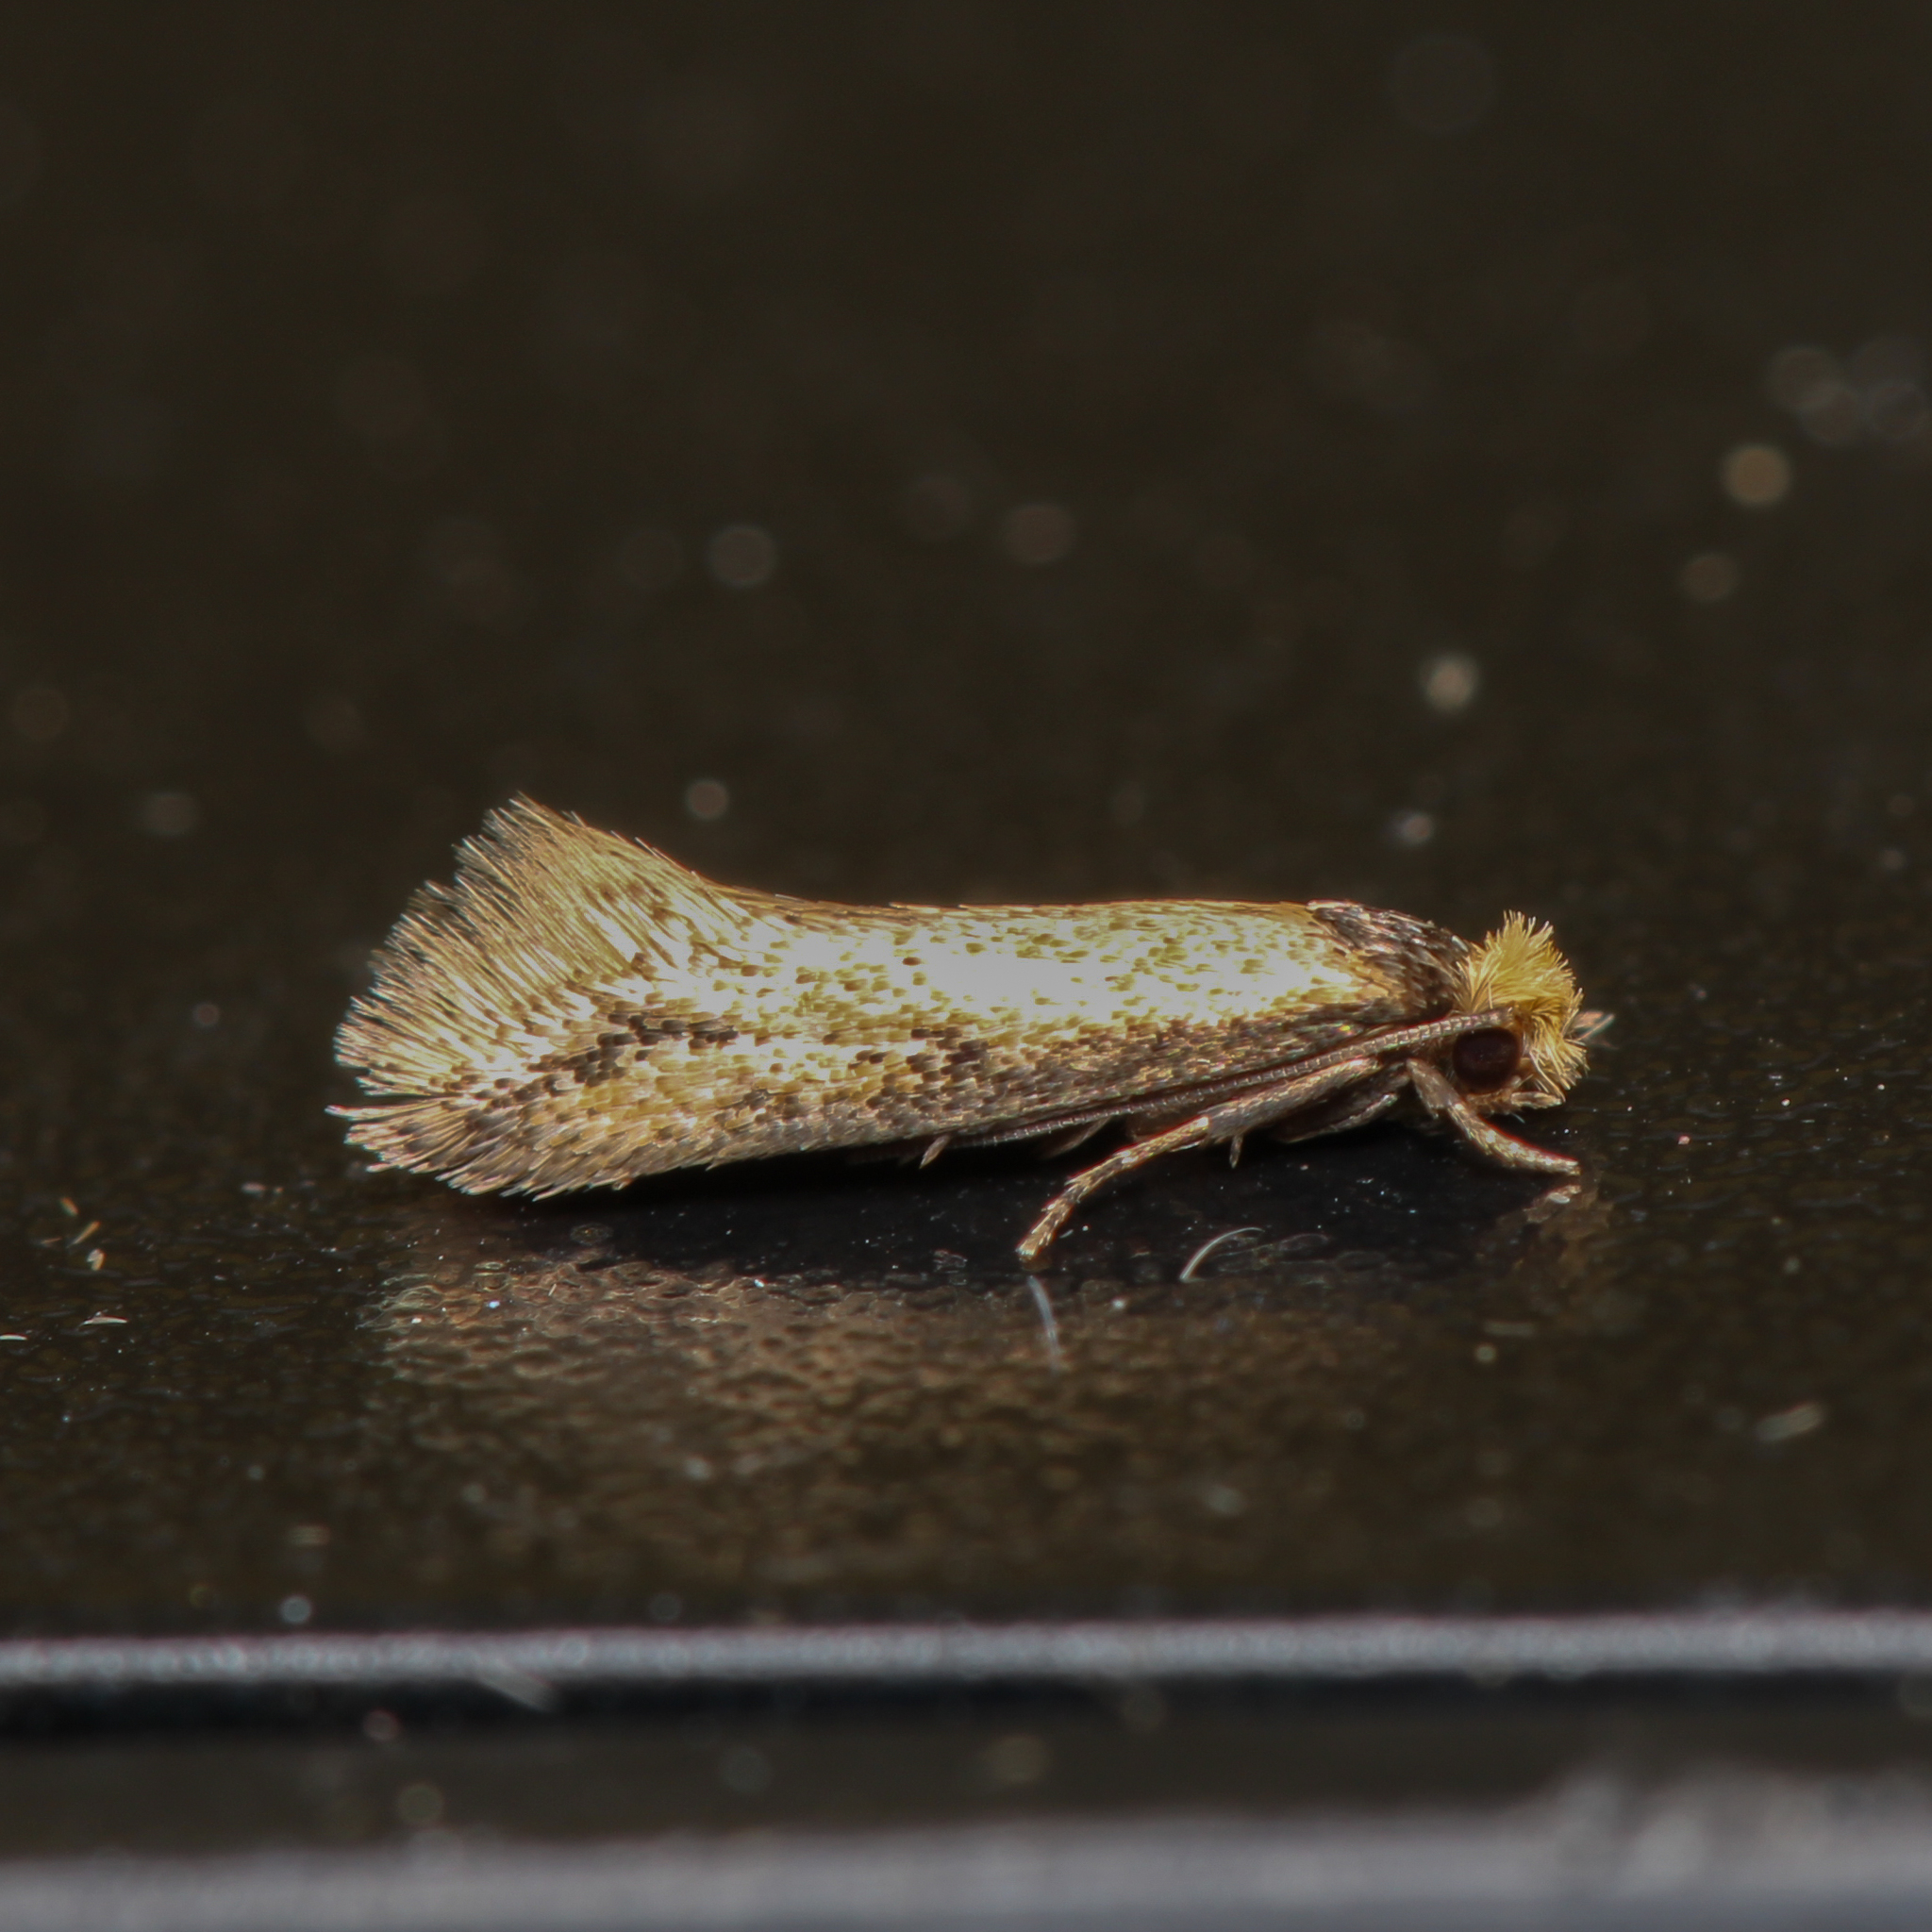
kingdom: Animalia
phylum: Arthropoda
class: Insecta
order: Lepidoptera
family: Meessiidae
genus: Homostinea
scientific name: Homostinea curviliniella
